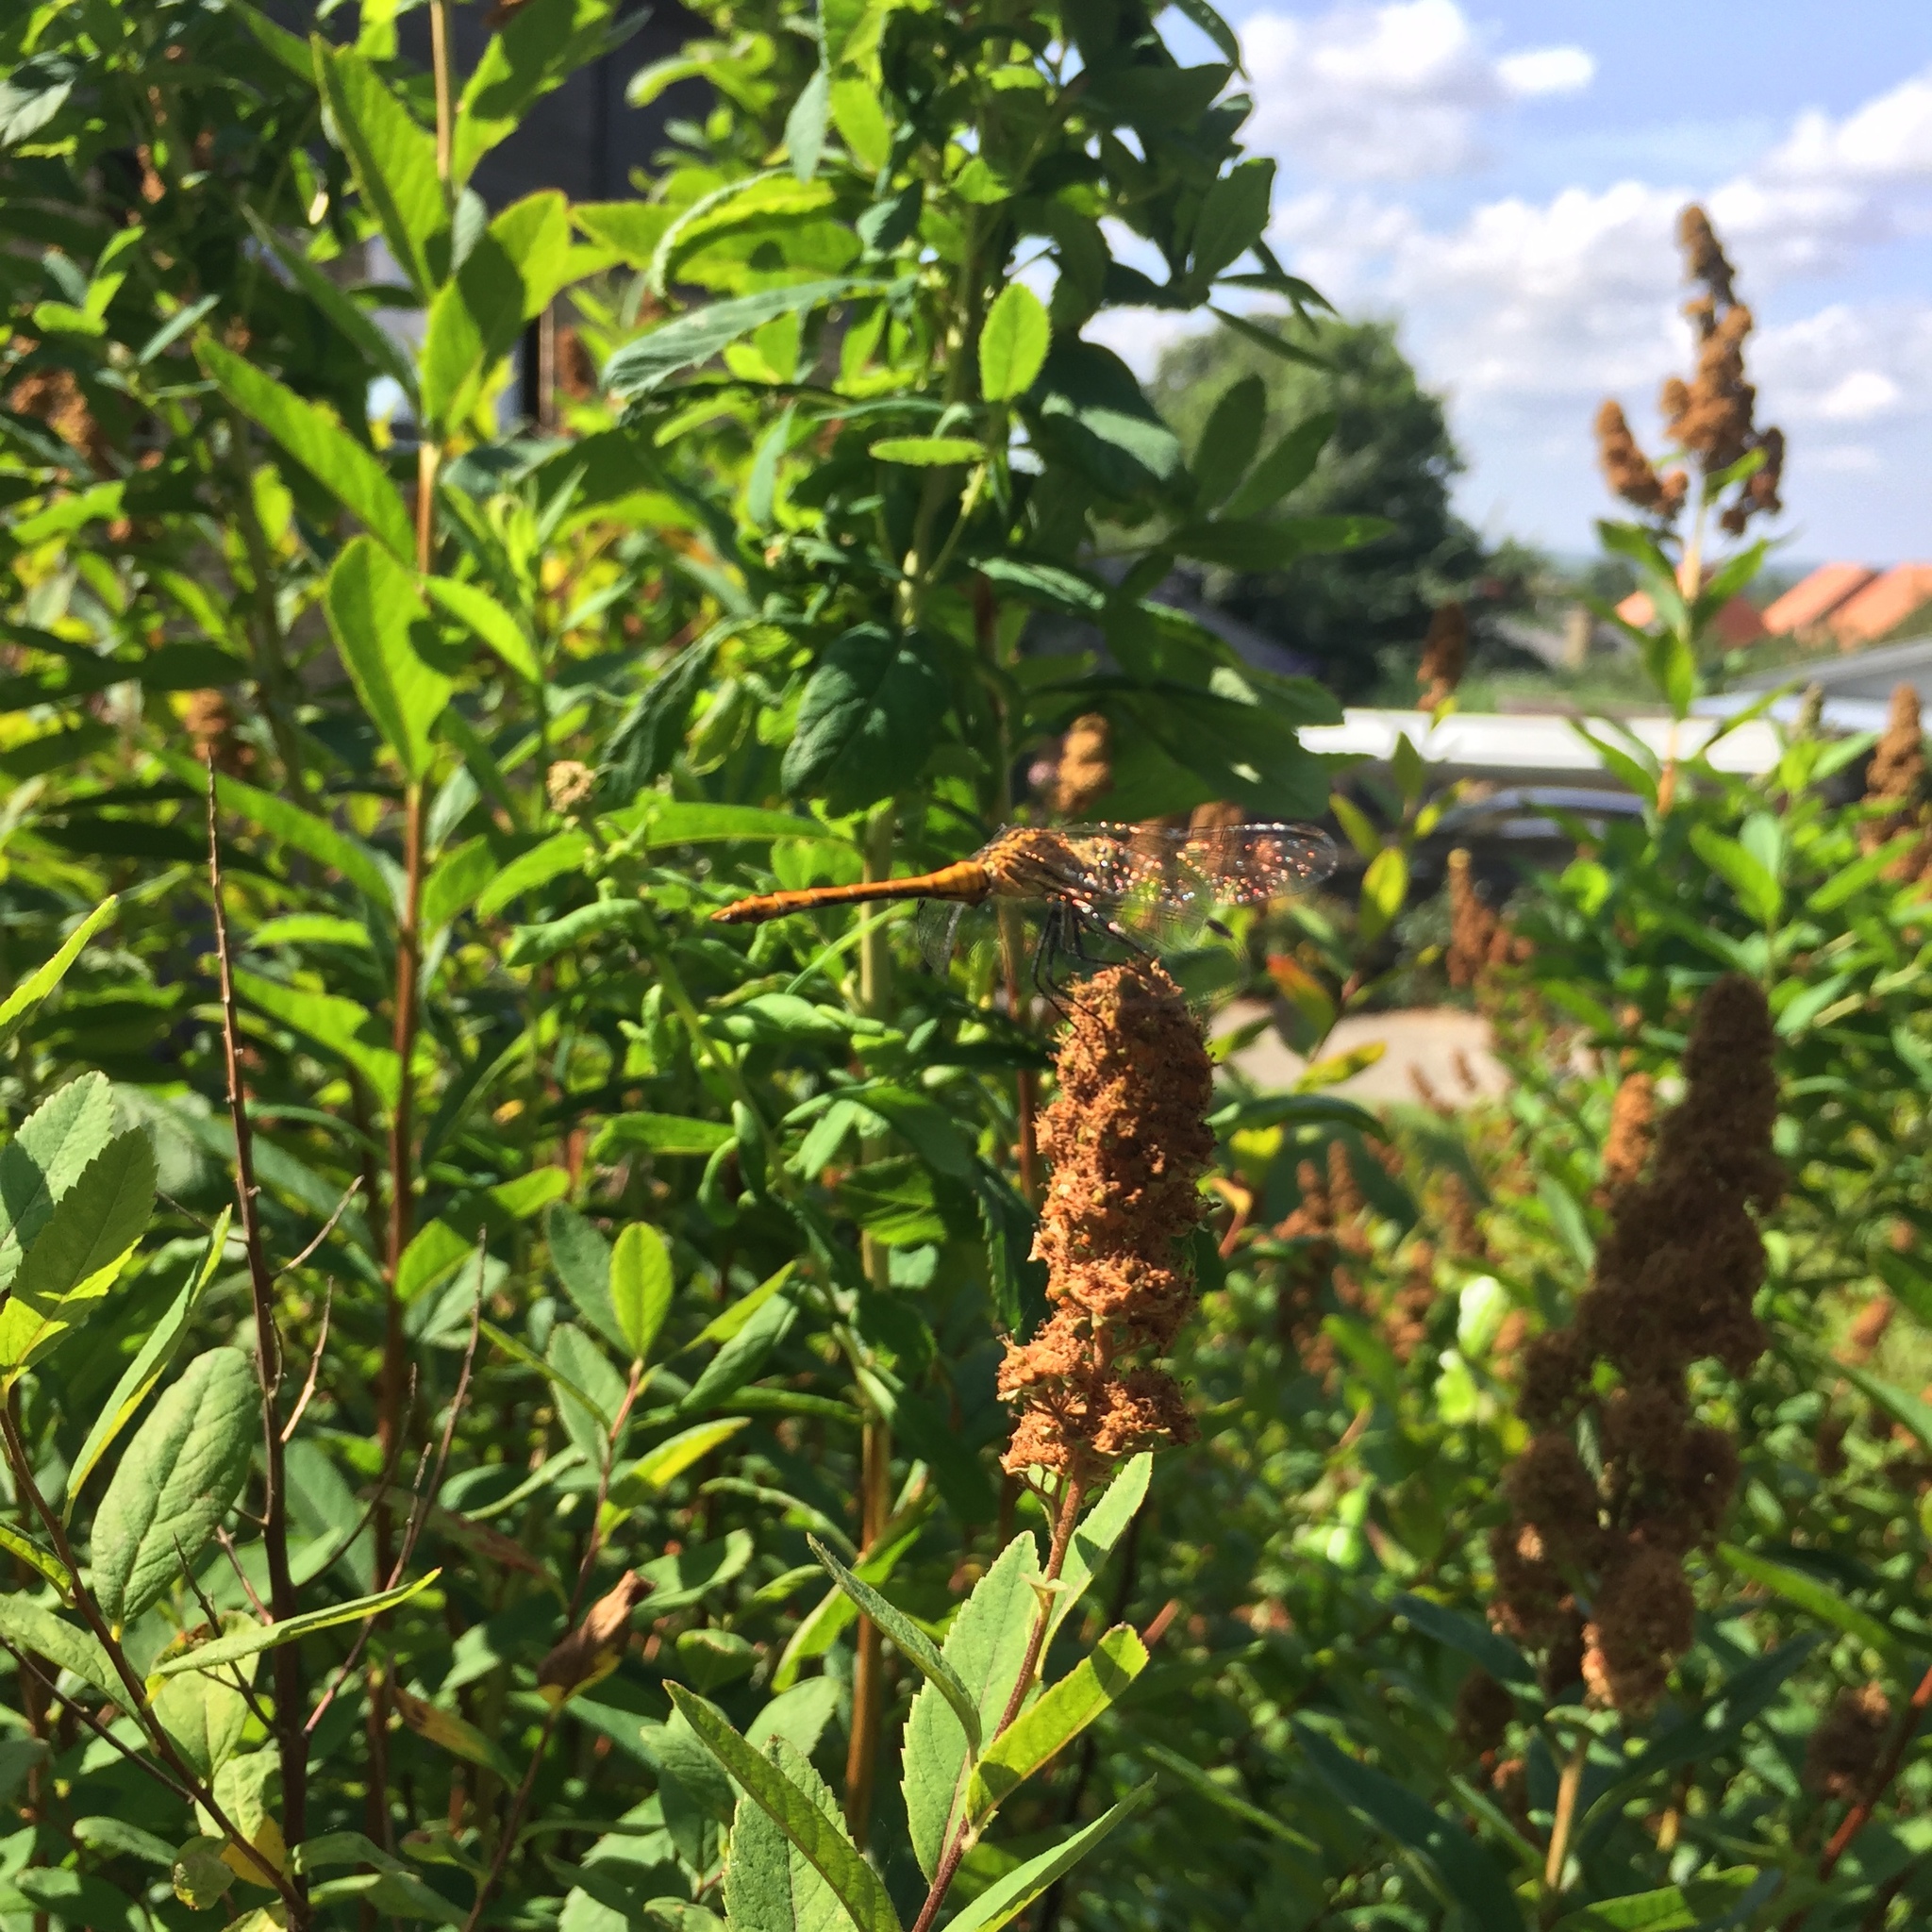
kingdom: Animalia
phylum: Arthropoda
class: Insecta
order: Odonata
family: Libellulidae
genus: Sympetrum
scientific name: Sympetrum sanguineum
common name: Ruddy darter
